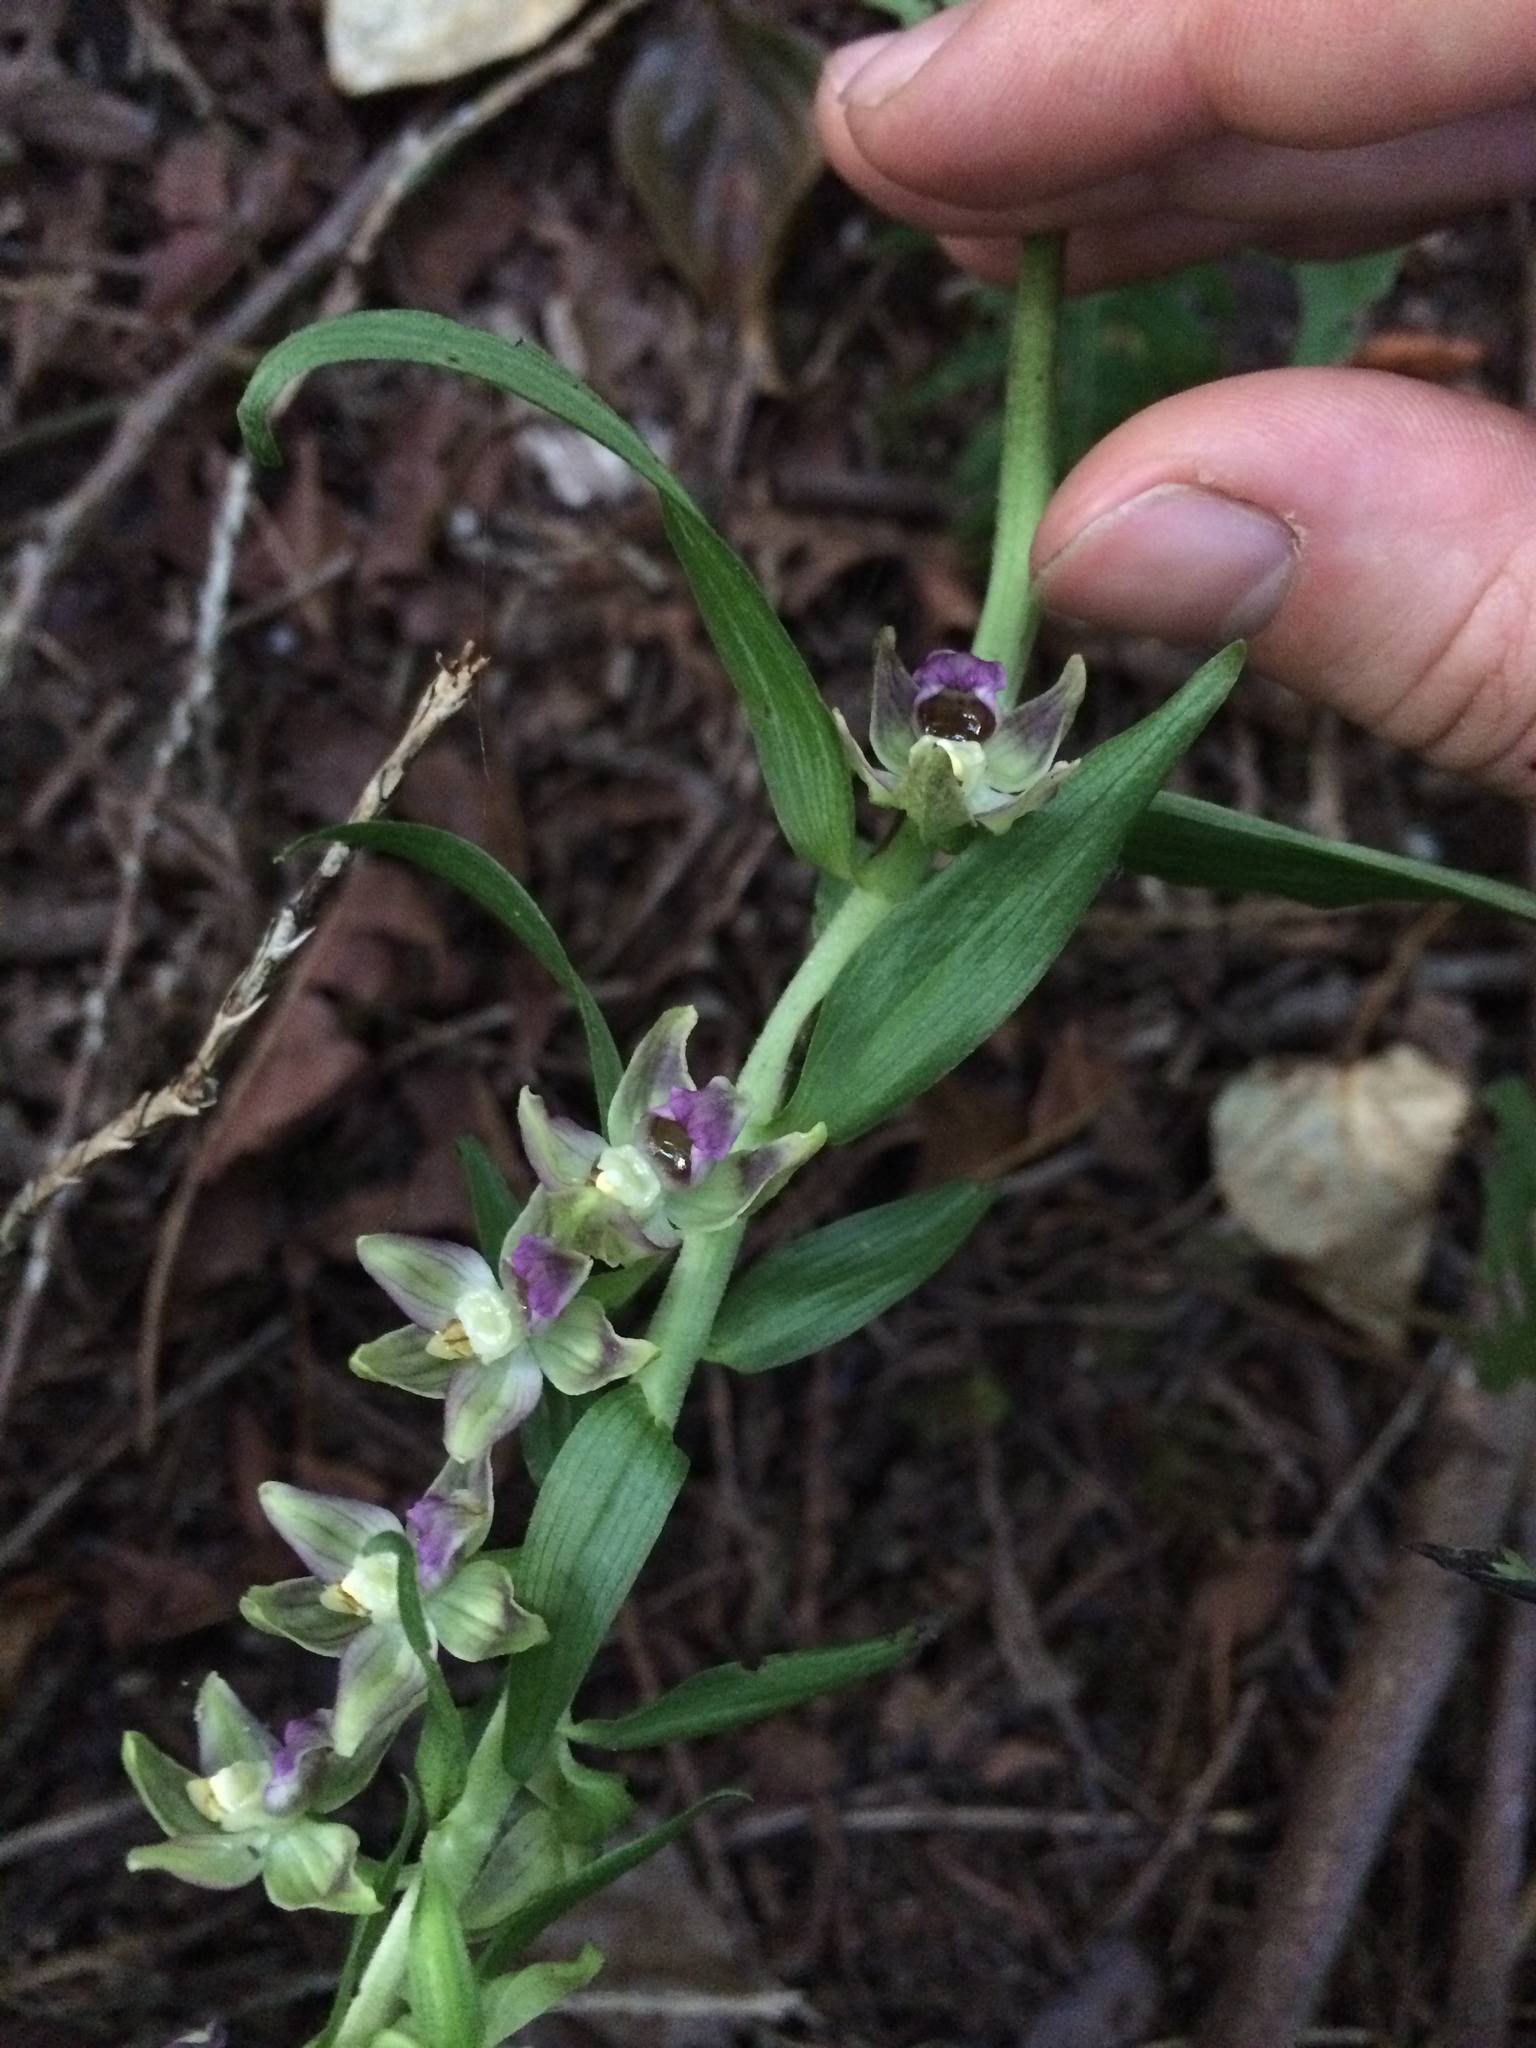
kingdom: Plantae
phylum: Tracheophyta
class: Liliopsida
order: Asparagales
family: Orchidaceae
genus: Epipactis
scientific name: Epipactis helleborine
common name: Broad-leaved helleborine
